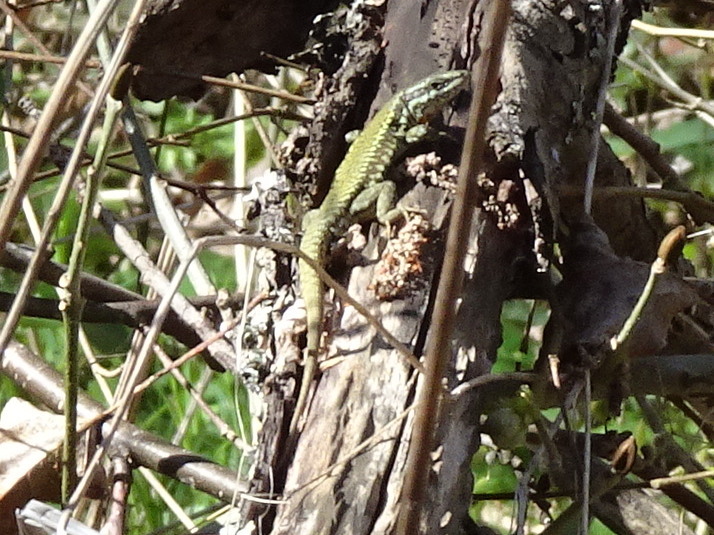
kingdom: Animalia
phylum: Chordata
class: Squamata
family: Lacertidae
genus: Podarcis
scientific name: Podarcis muralis
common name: Common wall lizard
